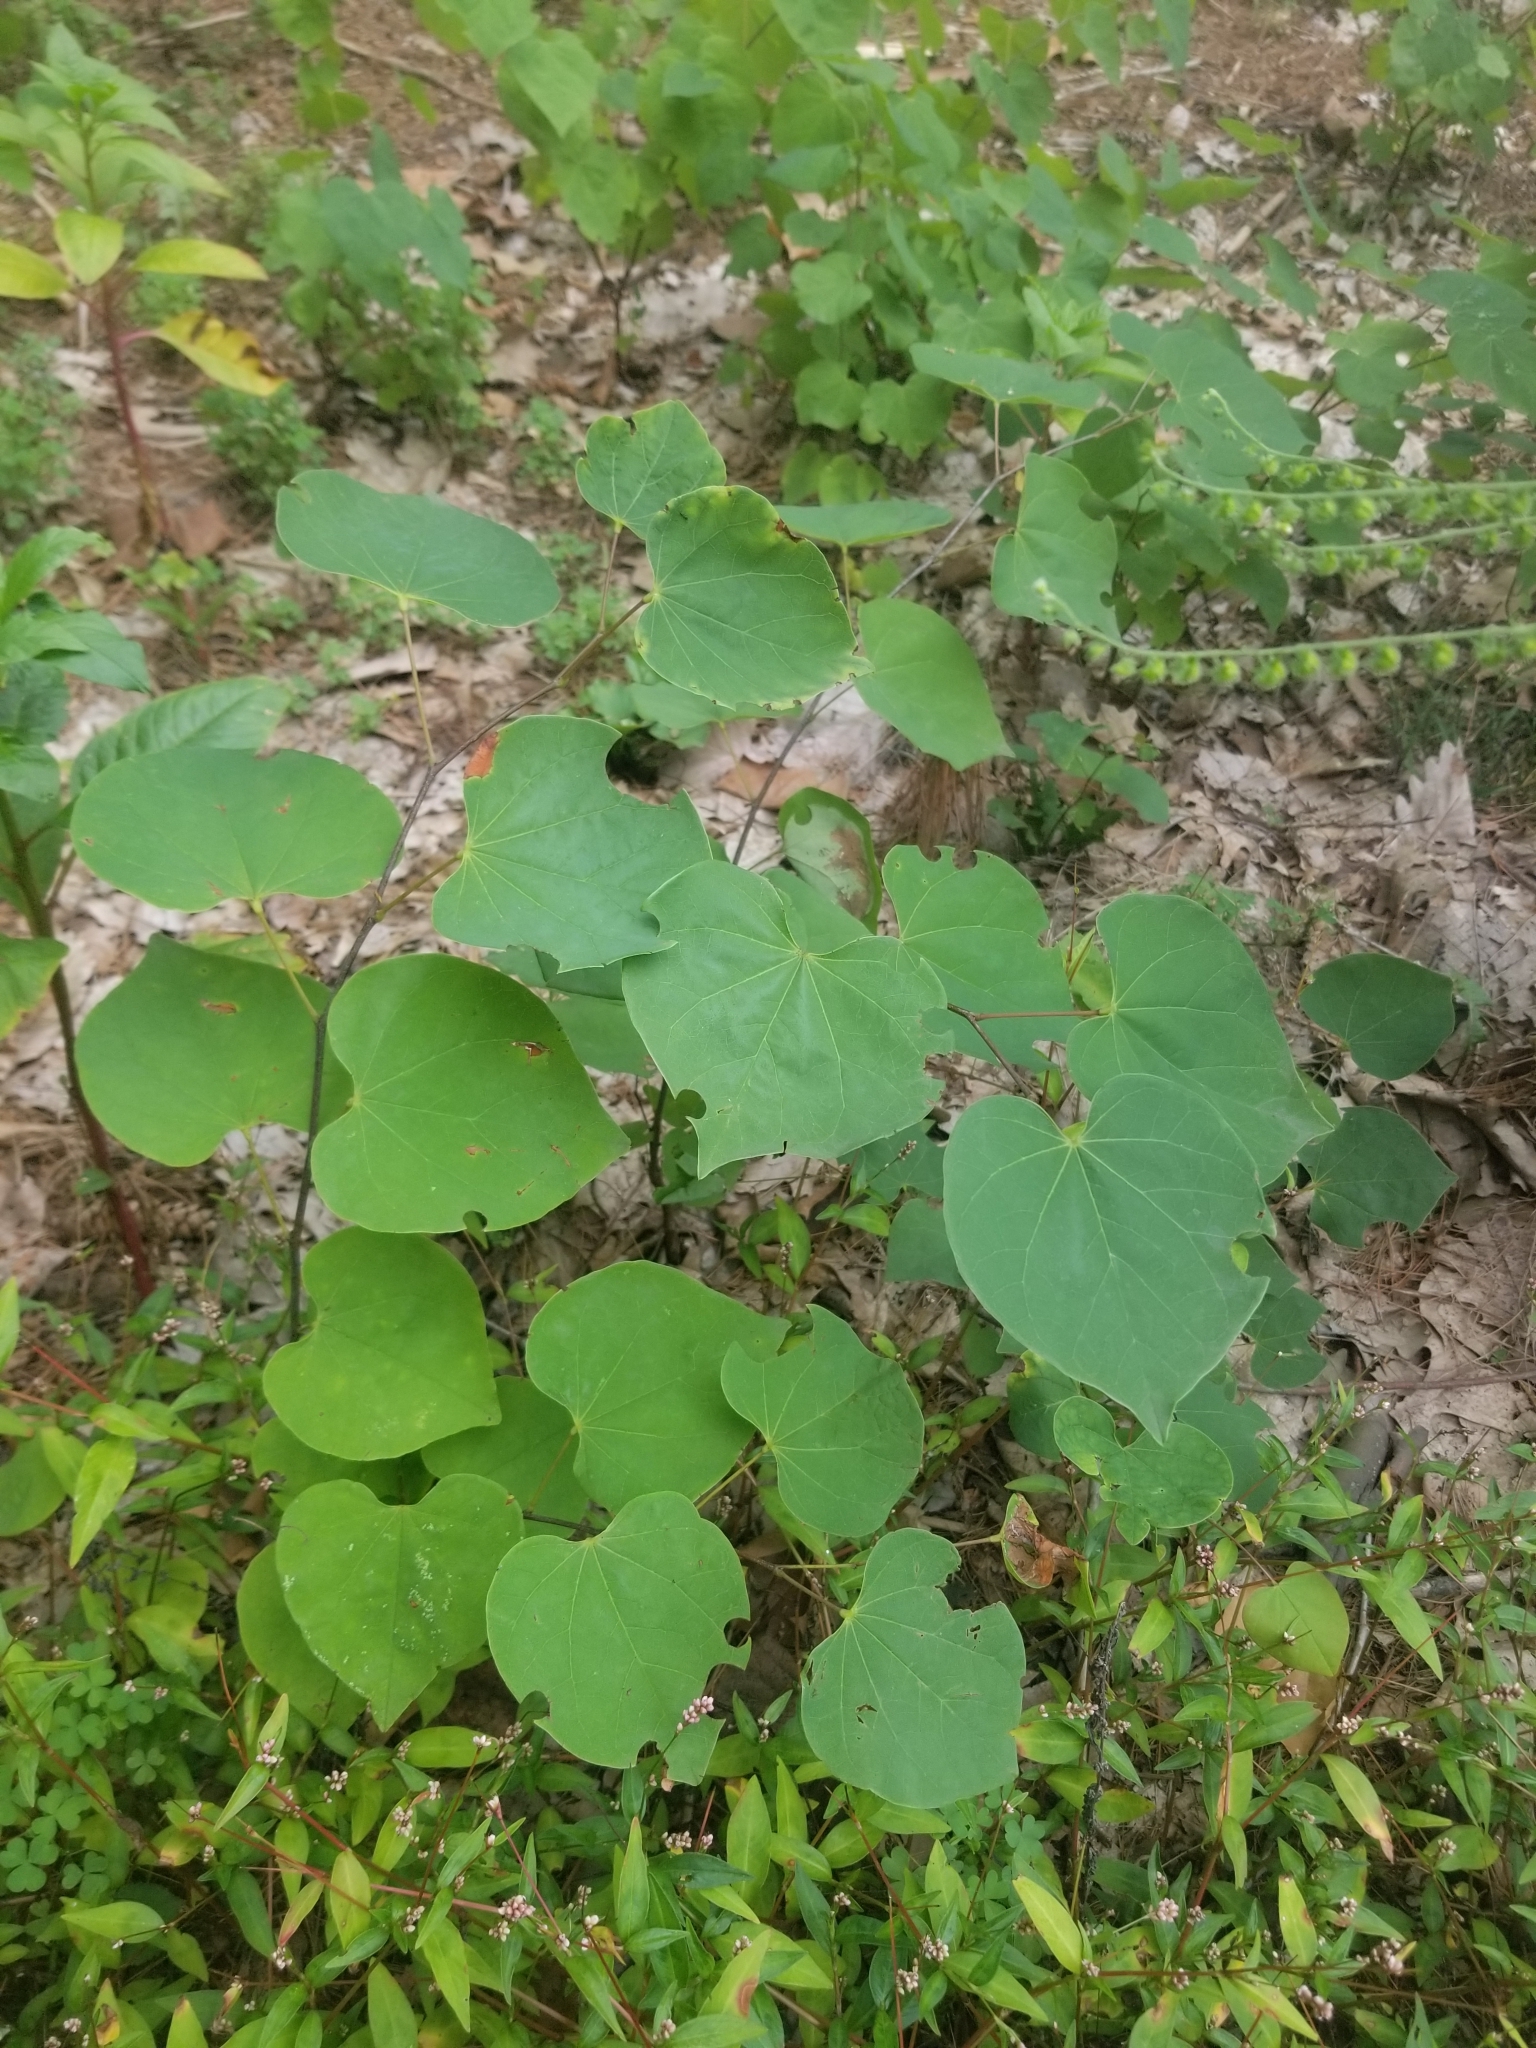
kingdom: Plantae
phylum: Tracheophyta
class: Magnoliopsida
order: Fabales
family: Fabaceae
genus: Cercis
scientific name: Cercis canadensis
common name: Eastern redbud
